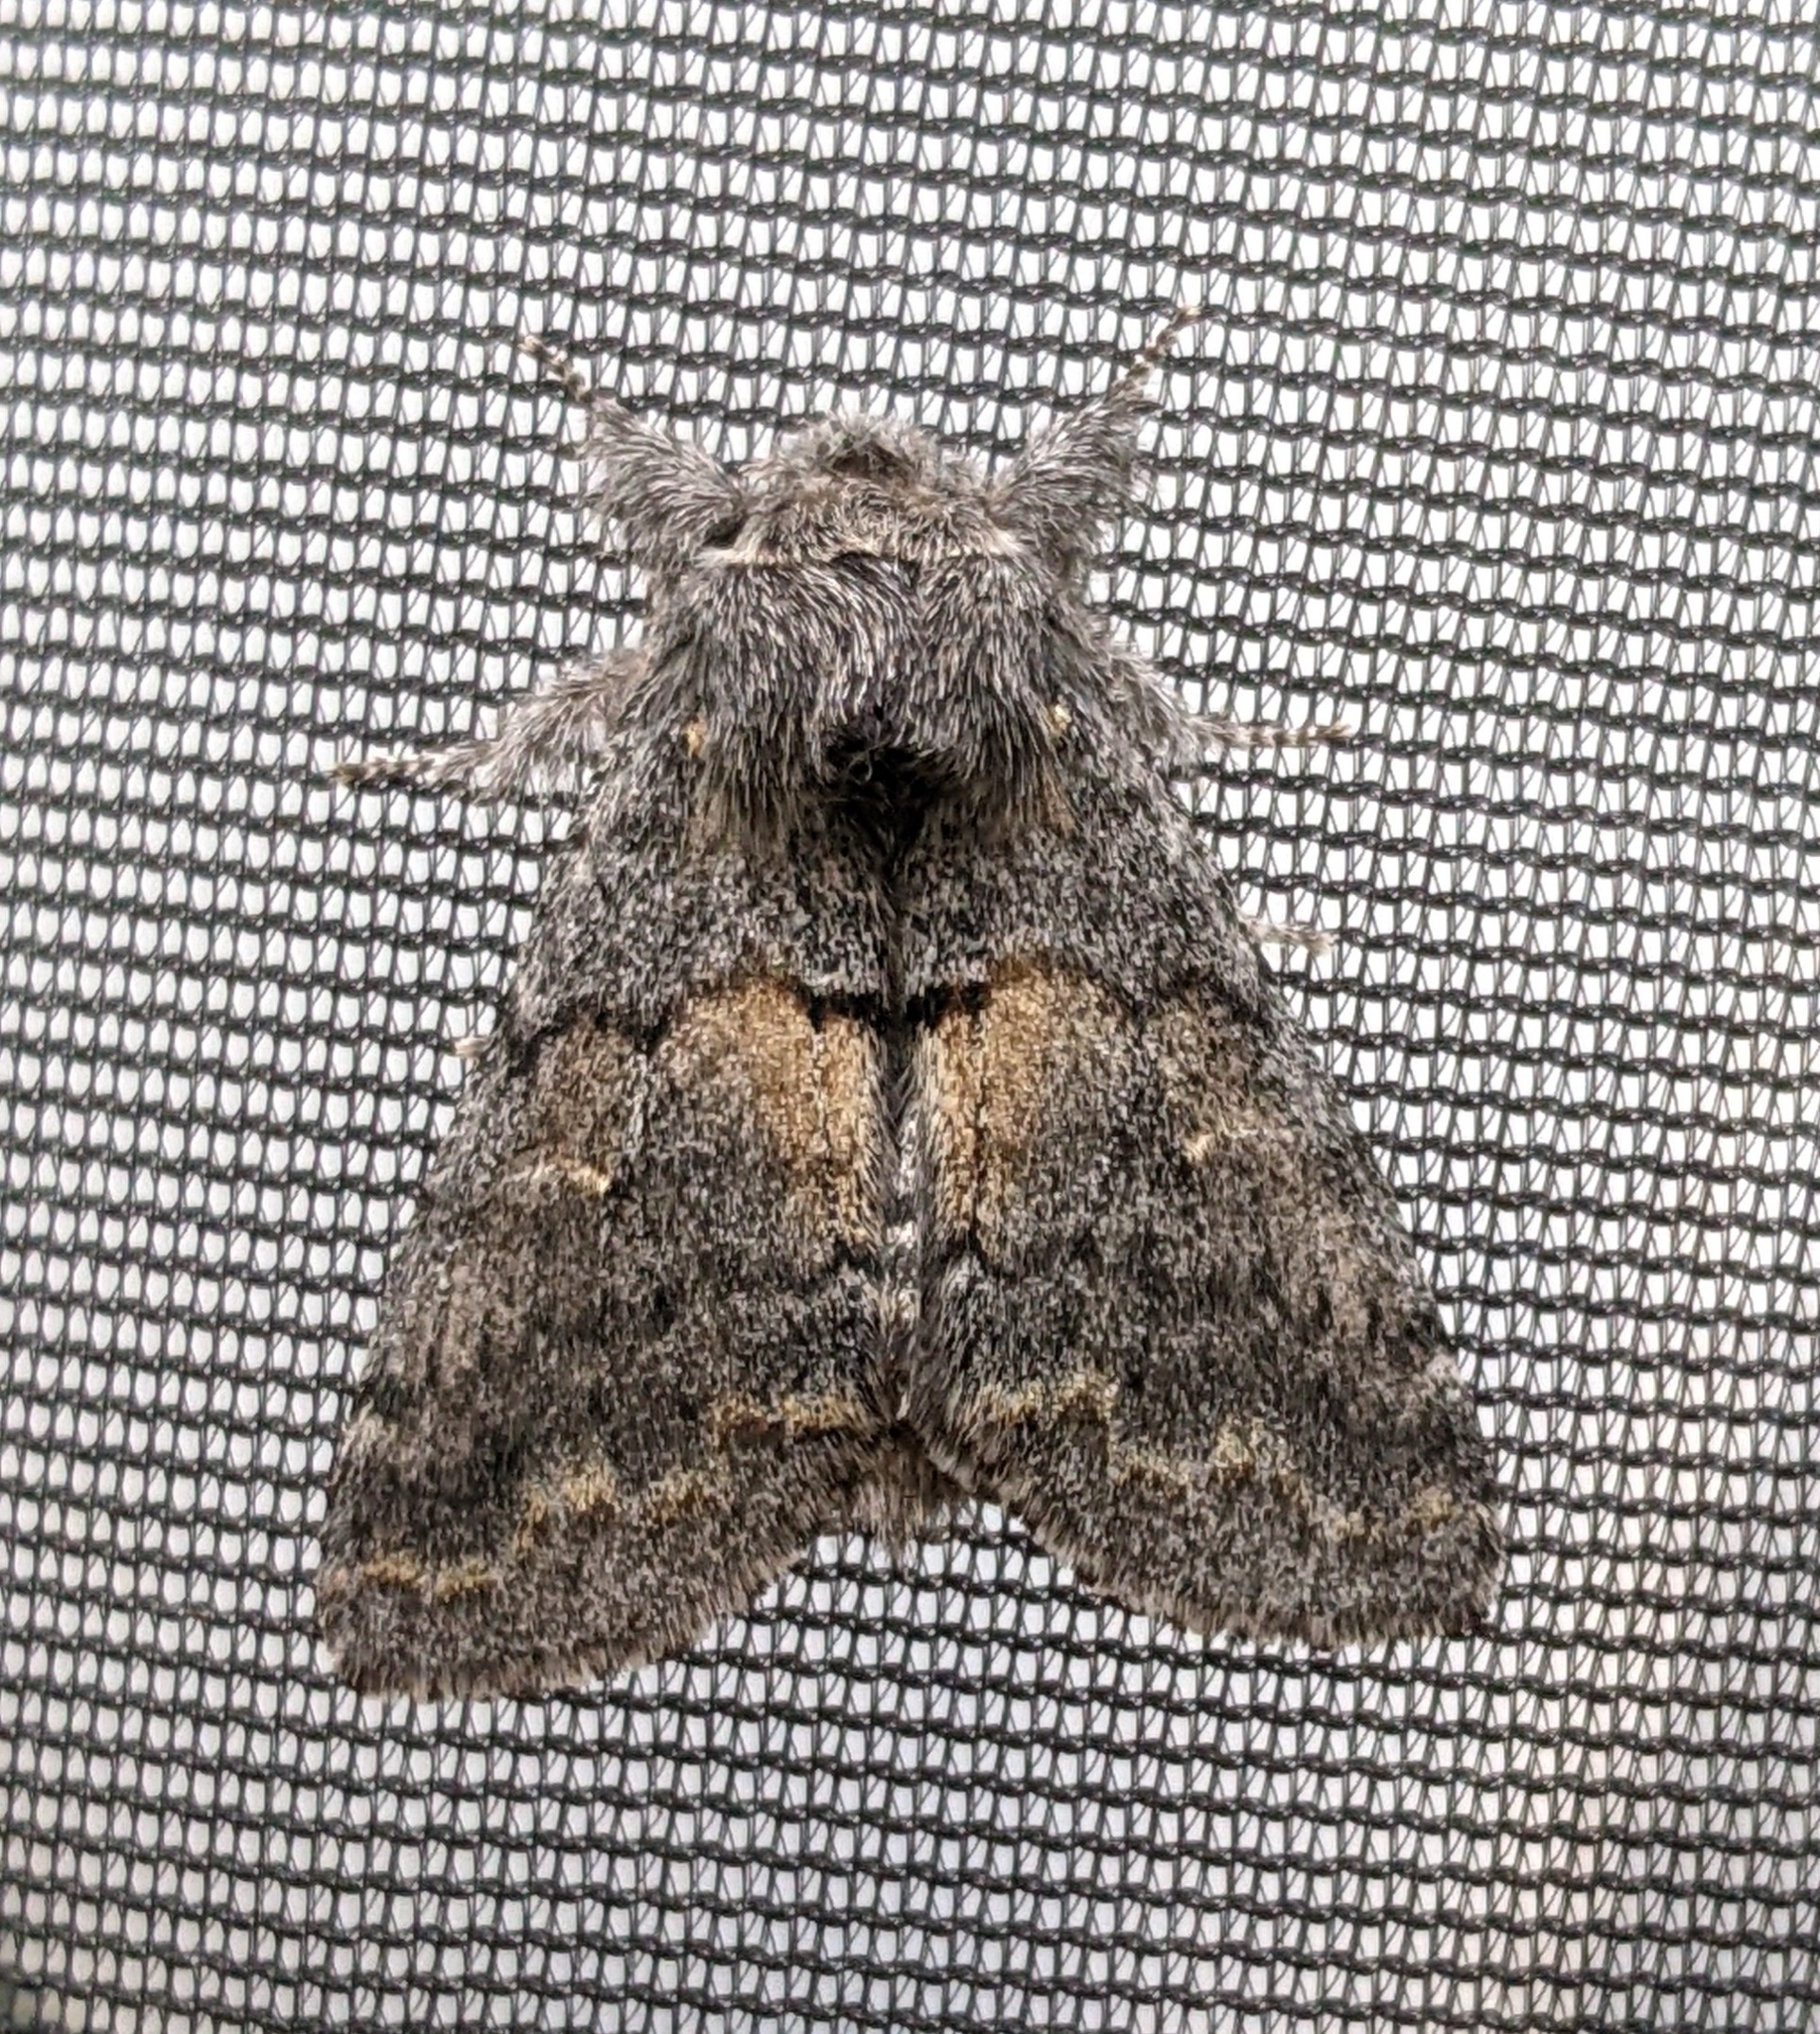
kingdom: Animalia
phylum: Arthropoda
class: Insecta
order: Lepidoptera
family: Notodontidae
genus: Gluphisia
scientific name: Gluphisia severa
